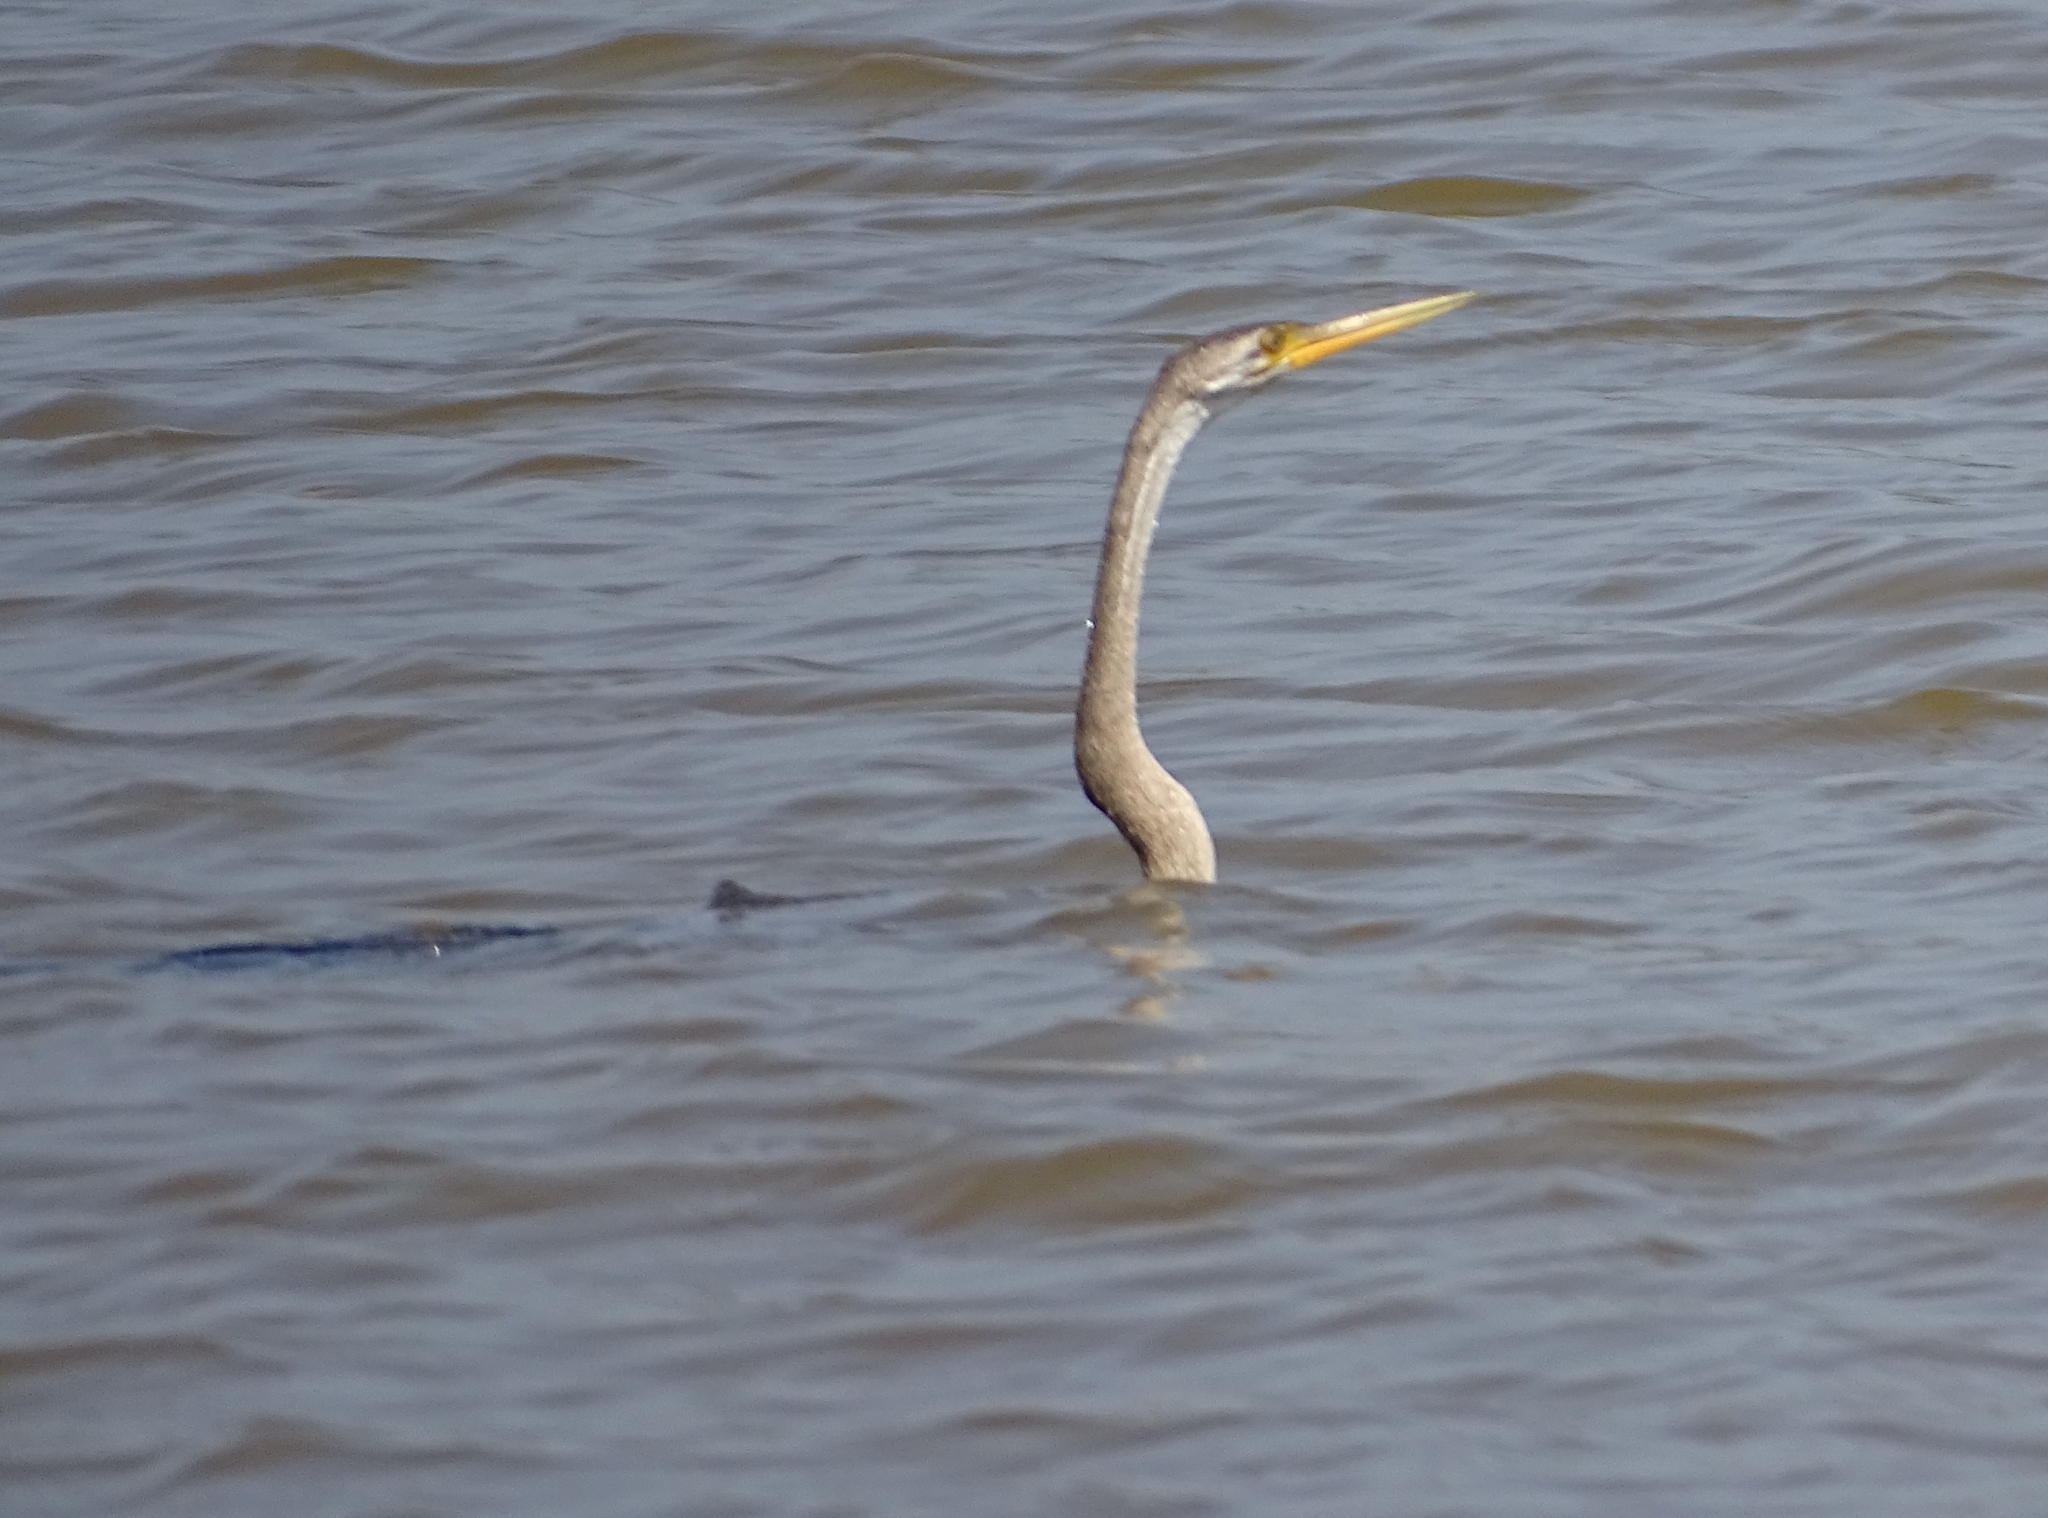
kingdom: Animalia
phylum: Chordata
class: Aves
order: Suliformes
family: Anhingidae
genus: Anhinga
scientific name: Anhinga melanogaster
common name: Oriental darter
